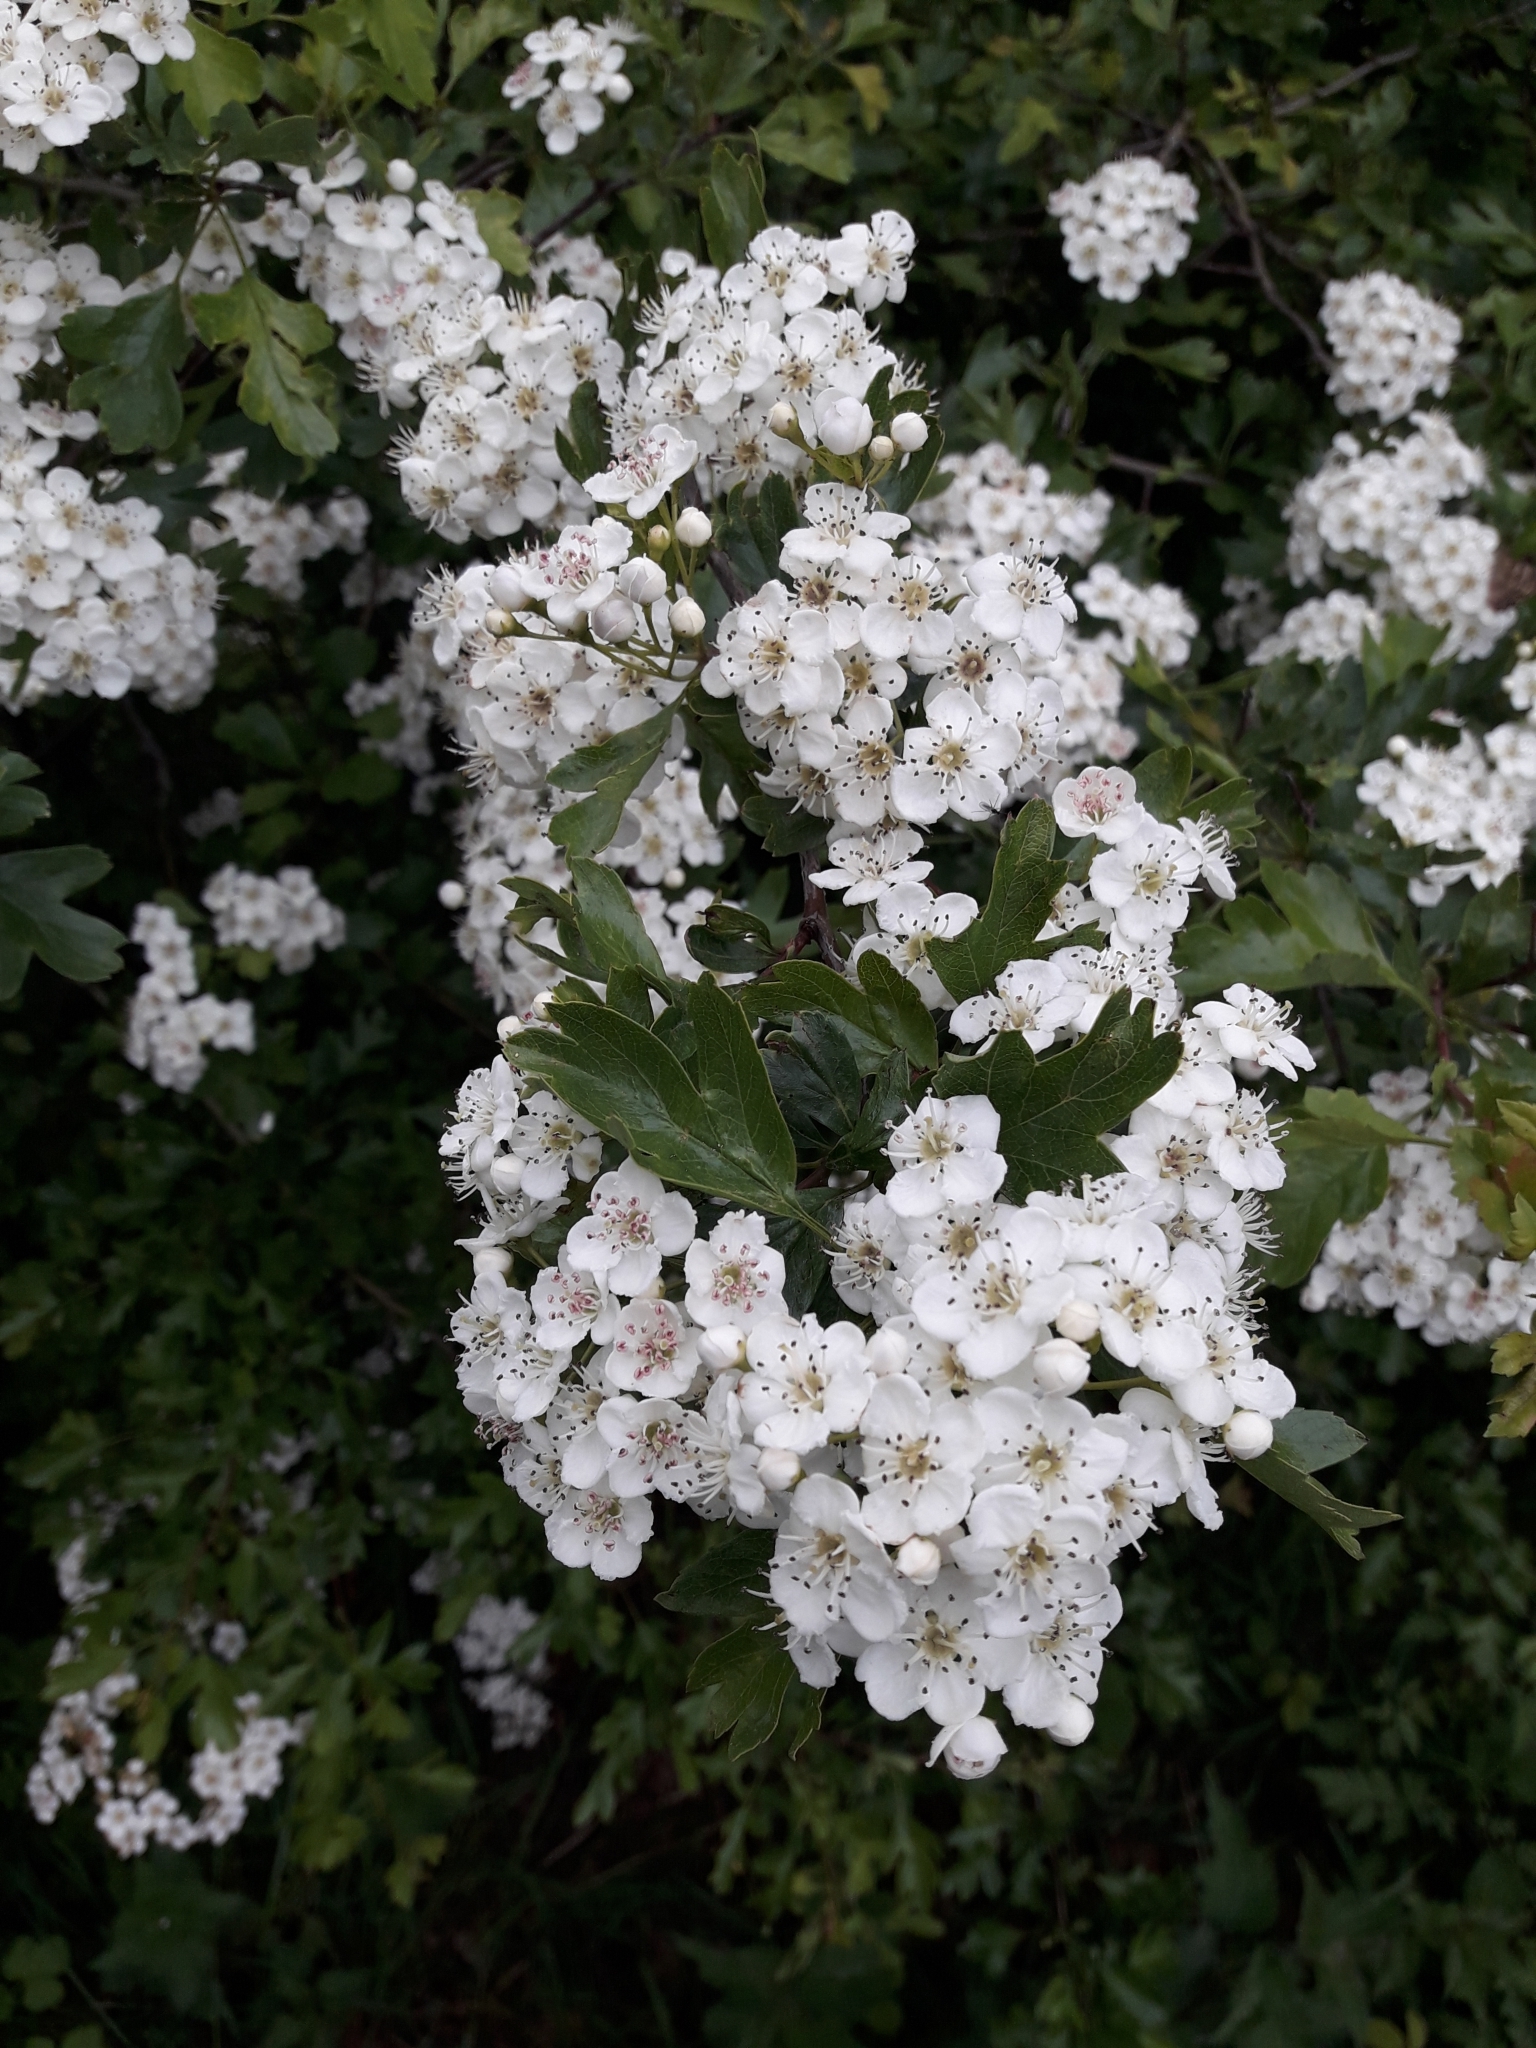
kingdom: Plantae
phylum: Tracheophyta
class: Magnoliopsida
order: Rosales
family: Rosaceae
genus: Crataegus
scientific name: Crataegus monogyna
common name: Hawthorn
